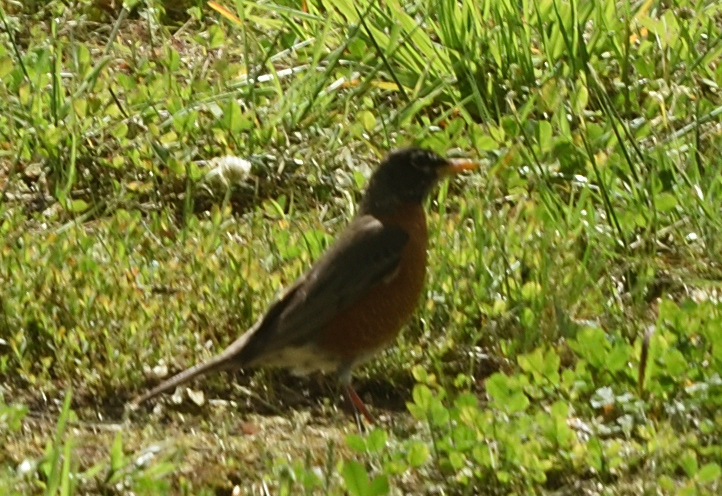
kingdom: Animalia
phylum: Chordata
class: Aves
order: Passeriformes
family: Turdidae
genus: Turdus
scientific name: Turdus migratorius
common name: American robin
